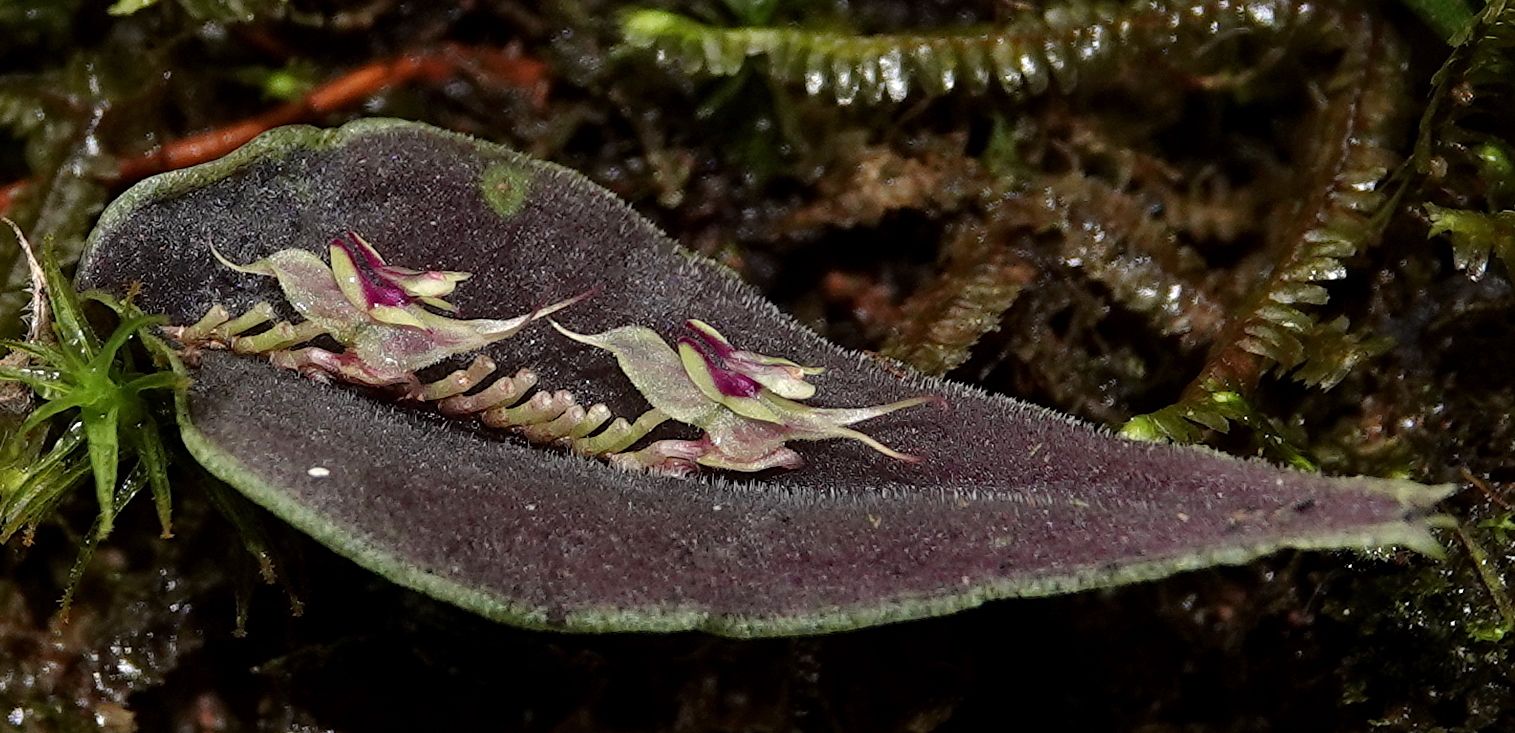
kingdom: Plantae
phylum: Tracheophyta
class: Liliopsida
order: Asparagales
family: Orchidaceae
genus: Lepanthes
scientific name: Lepanthes tomentosa
